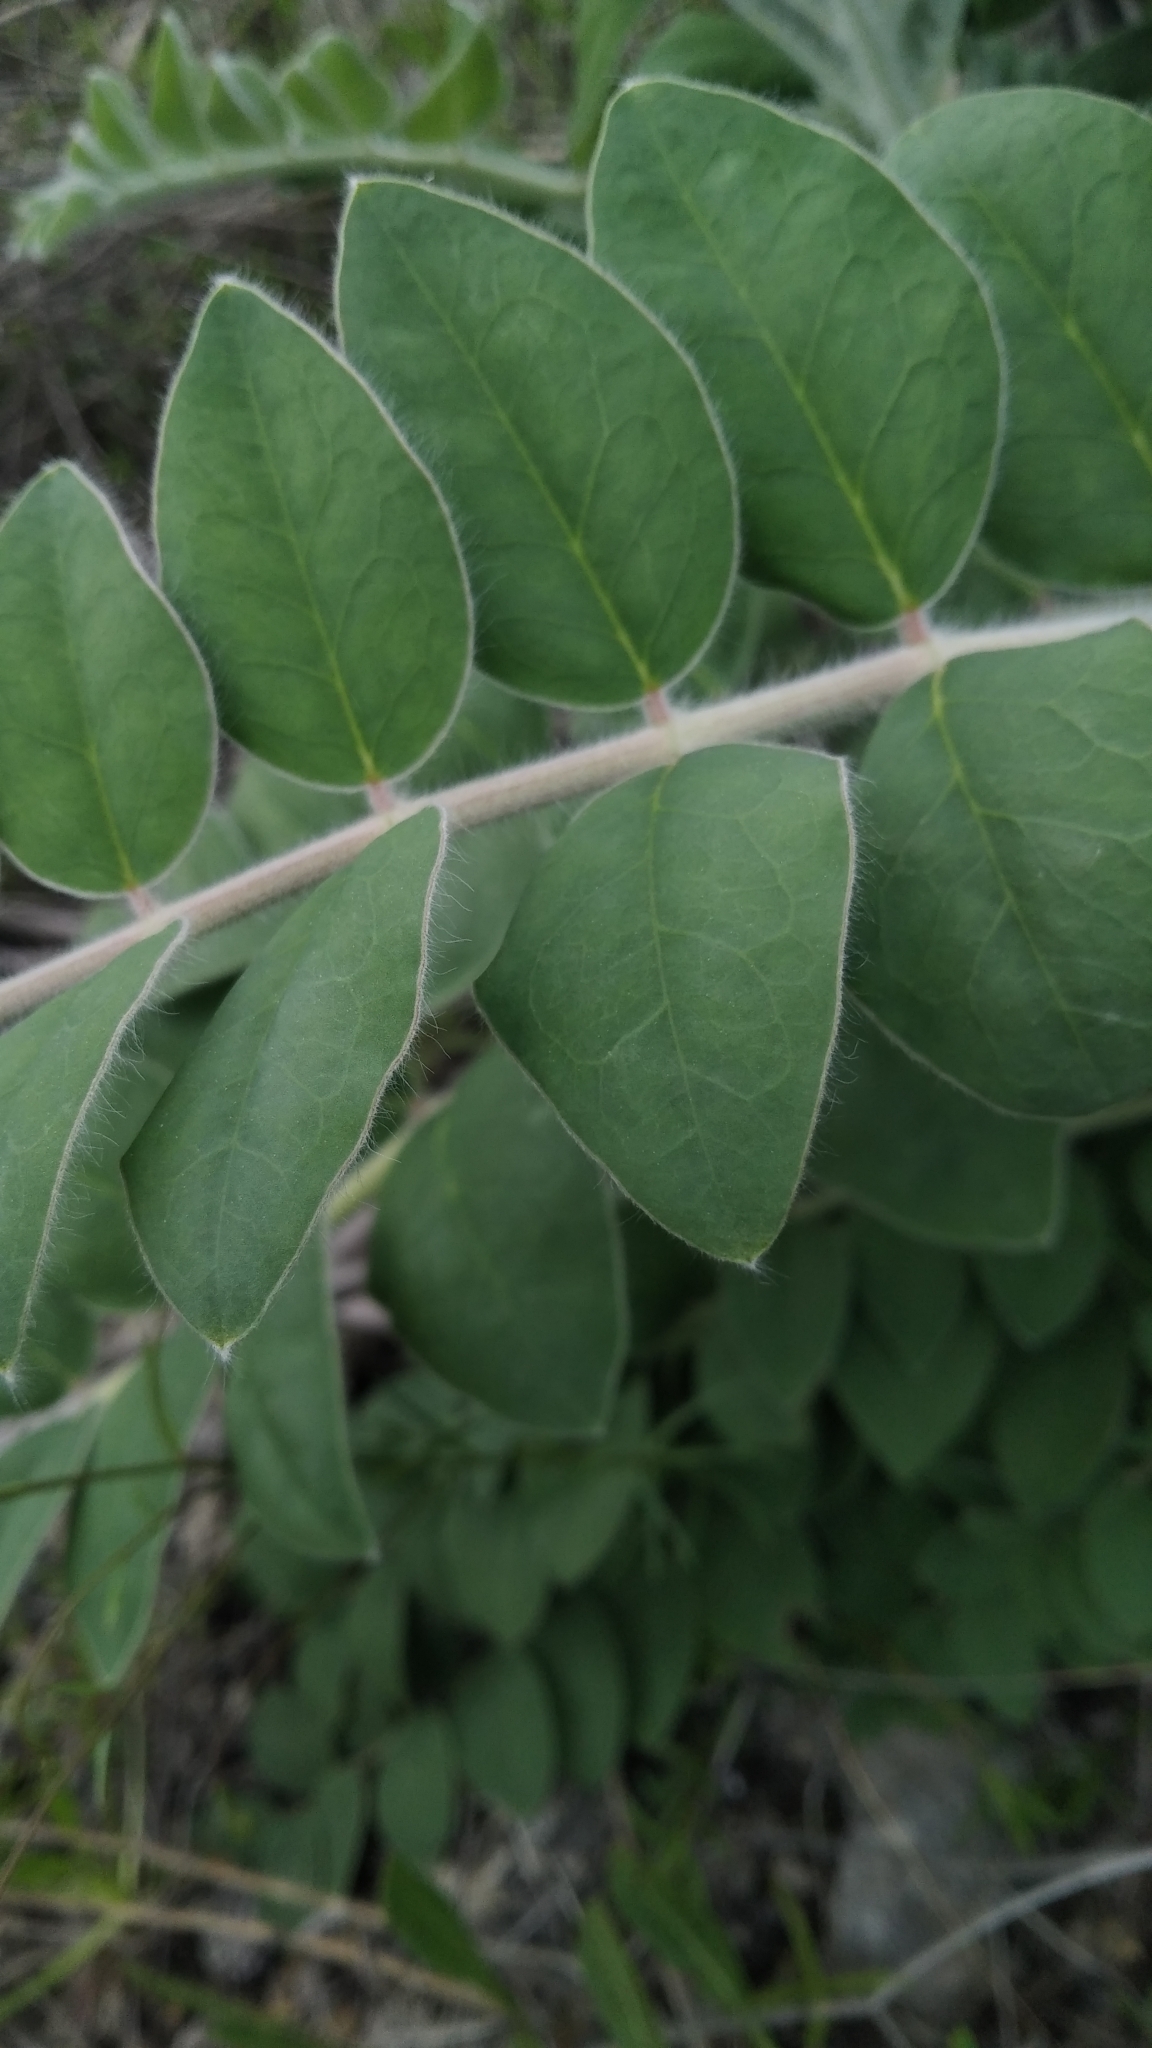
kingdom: Plantae
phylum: Tracheophyta
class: Magnoliopsida
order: Fabales
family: Fabaceae
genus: Onobrychis
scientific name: Onobrychis pallasii
